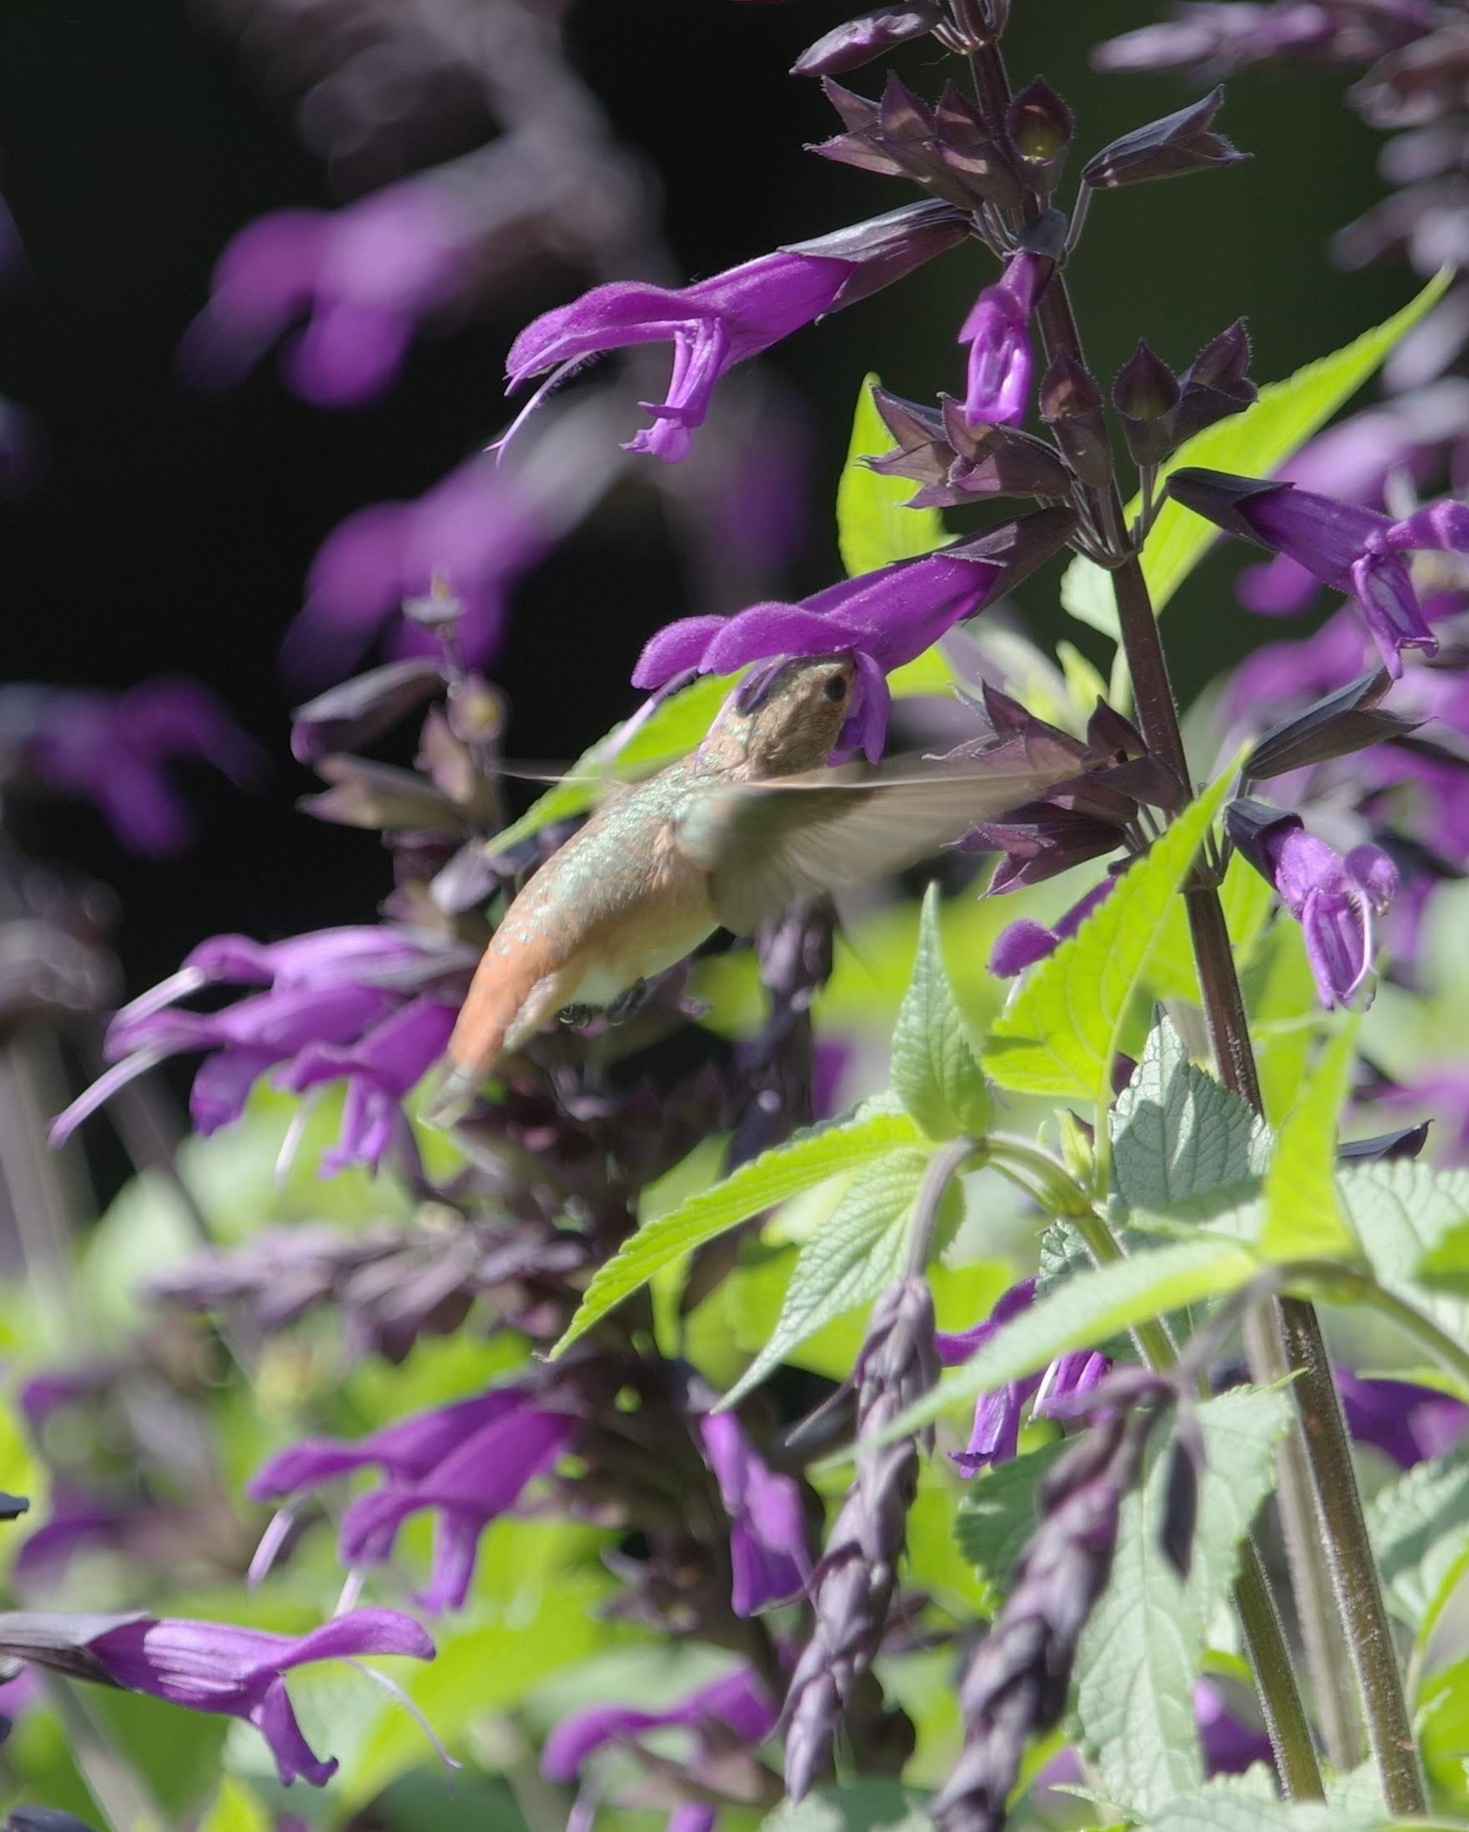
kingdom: Animalia
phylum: Chordata
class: Aves
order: Apodiformes
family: Trochilidae
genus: Selasphorus
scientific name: Selasphorus sasin
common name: Allen's hummingbird
